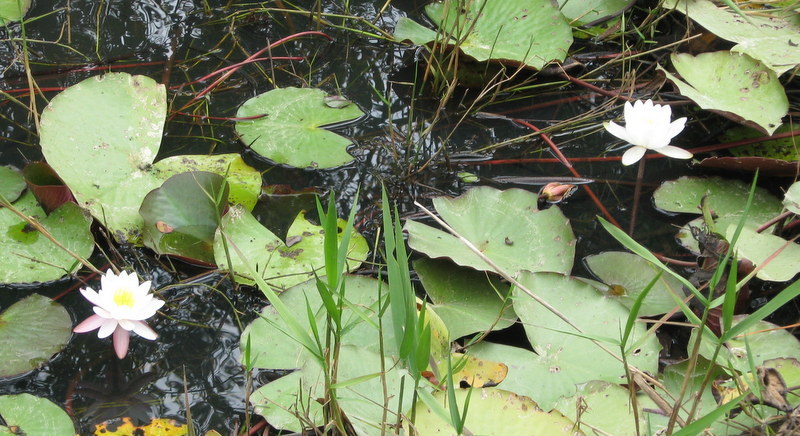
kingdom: Plantae
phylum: Tracheophyta
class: Magnoliopsida
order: Nymphaeales
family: Nymphaeaceae
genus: Nymphaea
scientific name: Nymphaea odorata
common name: Fragrant water-lily
